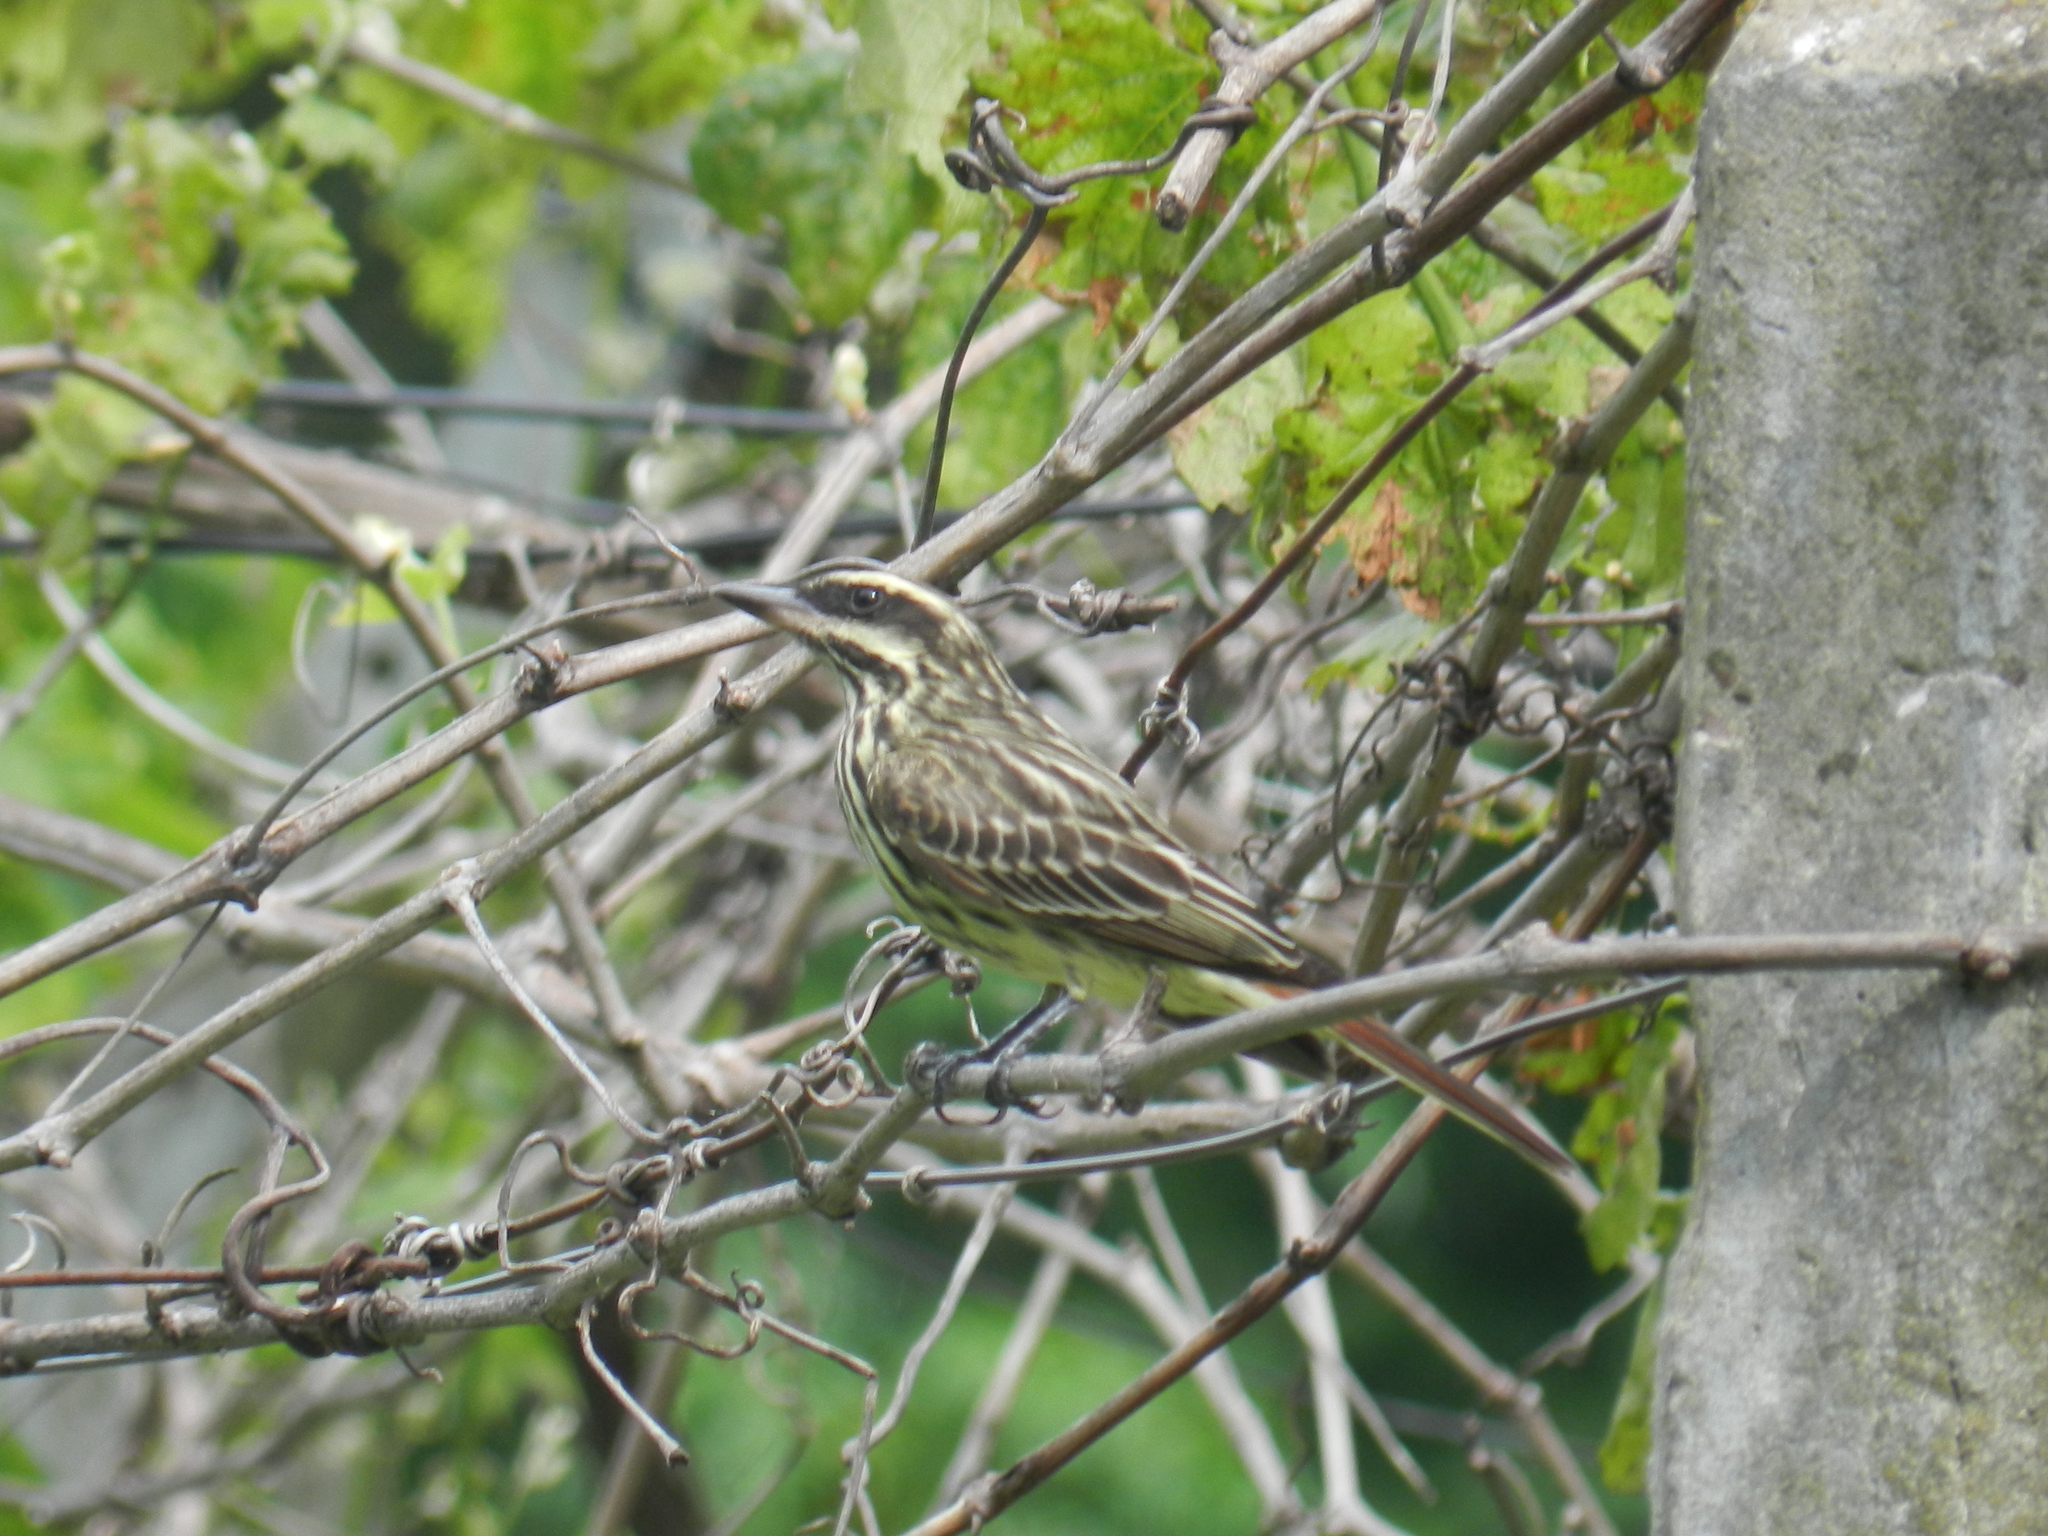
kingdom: Animalia
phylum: Chordata
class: Aves
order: Passeriformes
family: Tyrannidae
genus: Myiodynastes
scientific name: Myiodynastes maculatus
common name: Streaked flycatcher
